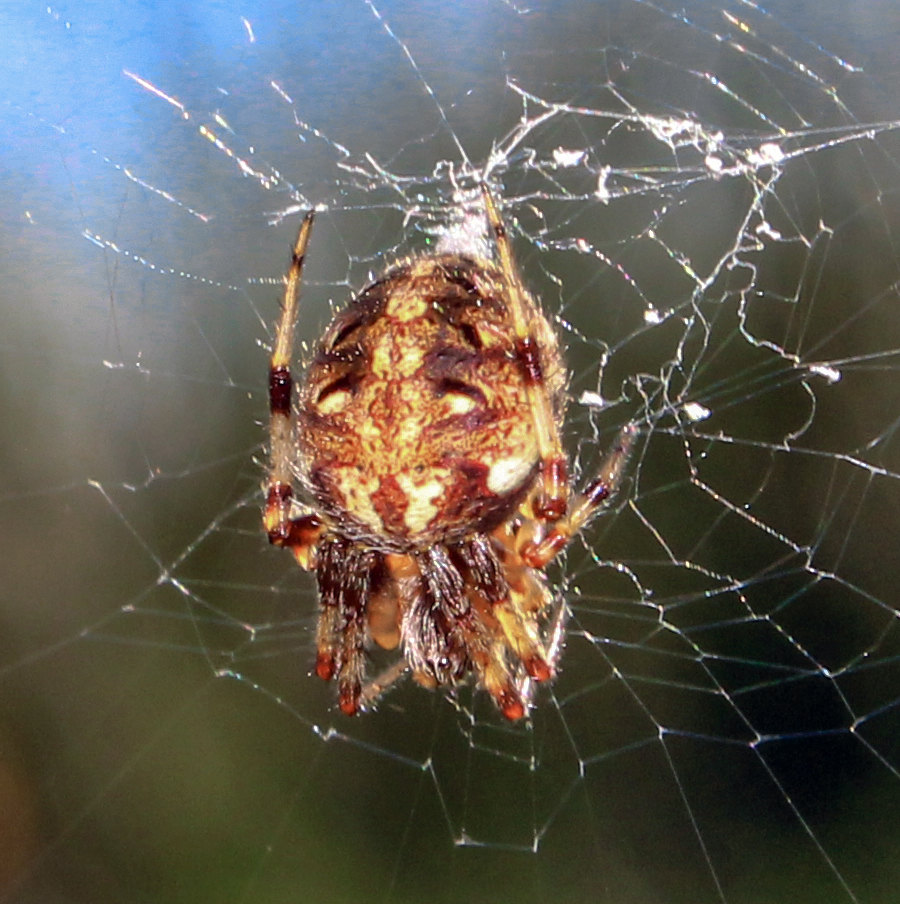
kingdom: Animalia
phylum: Arthropoda
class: Arachnida
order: Araneae
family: Araneidae
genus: Neoscona
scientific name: Neoscona arabesca
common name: Orb weavers
